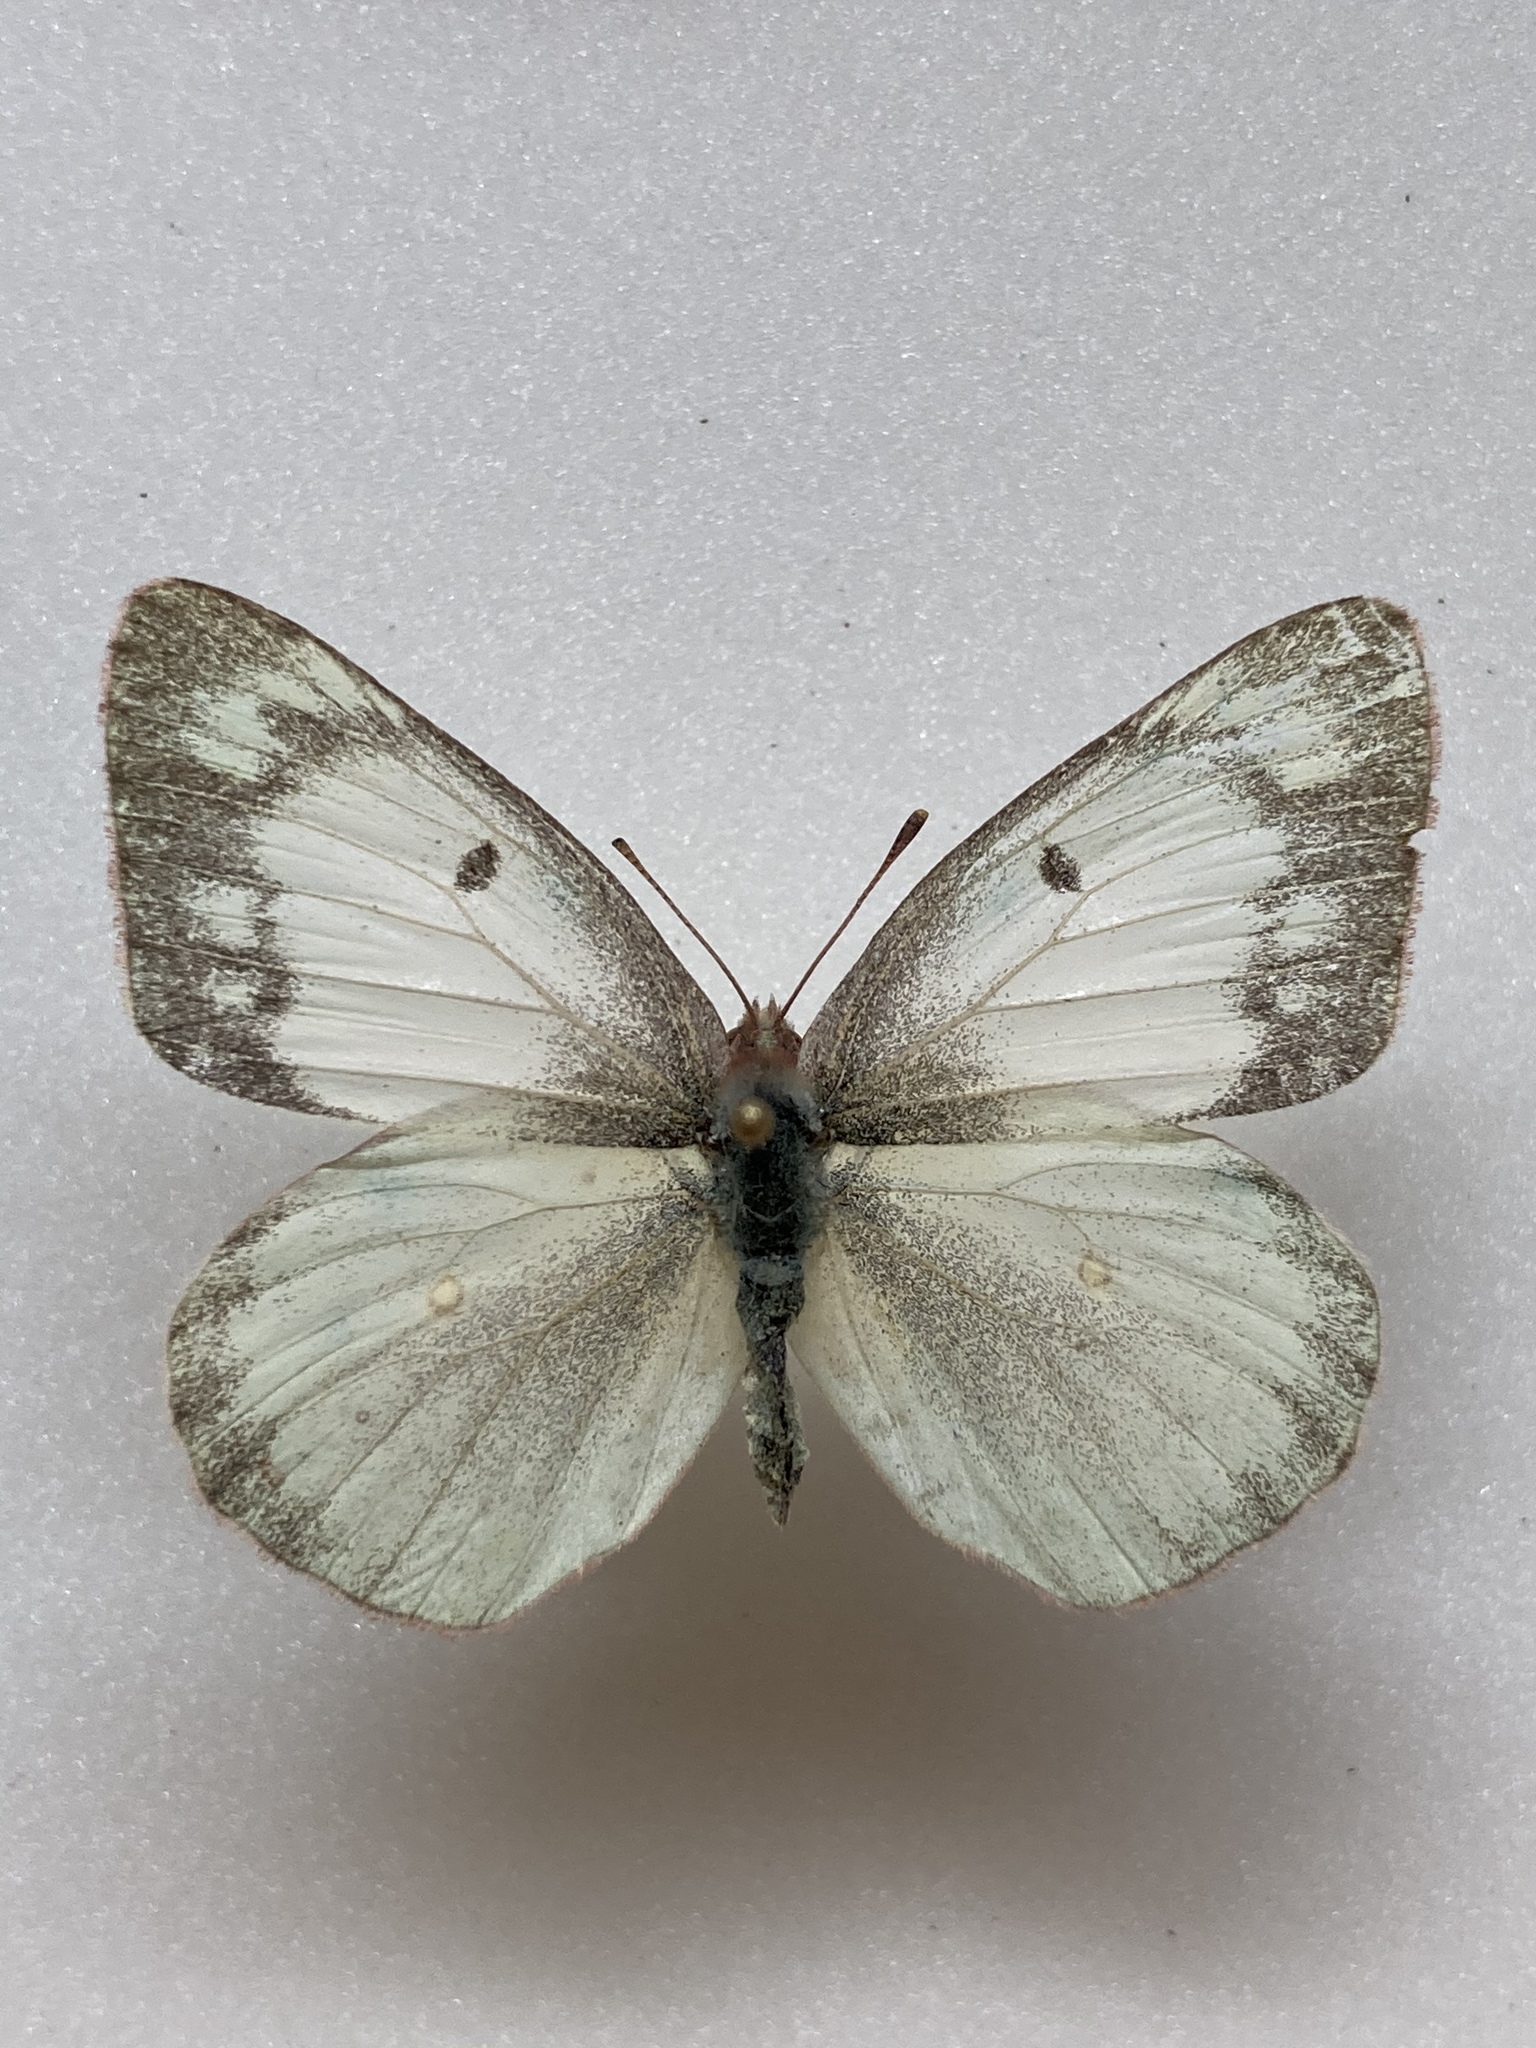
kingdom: Animalia
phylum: Arthropoda
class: Insecta
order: Lepidoptera
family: Pieridae
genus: Colias
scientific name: Colias philodice
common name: Clouded sulphur
